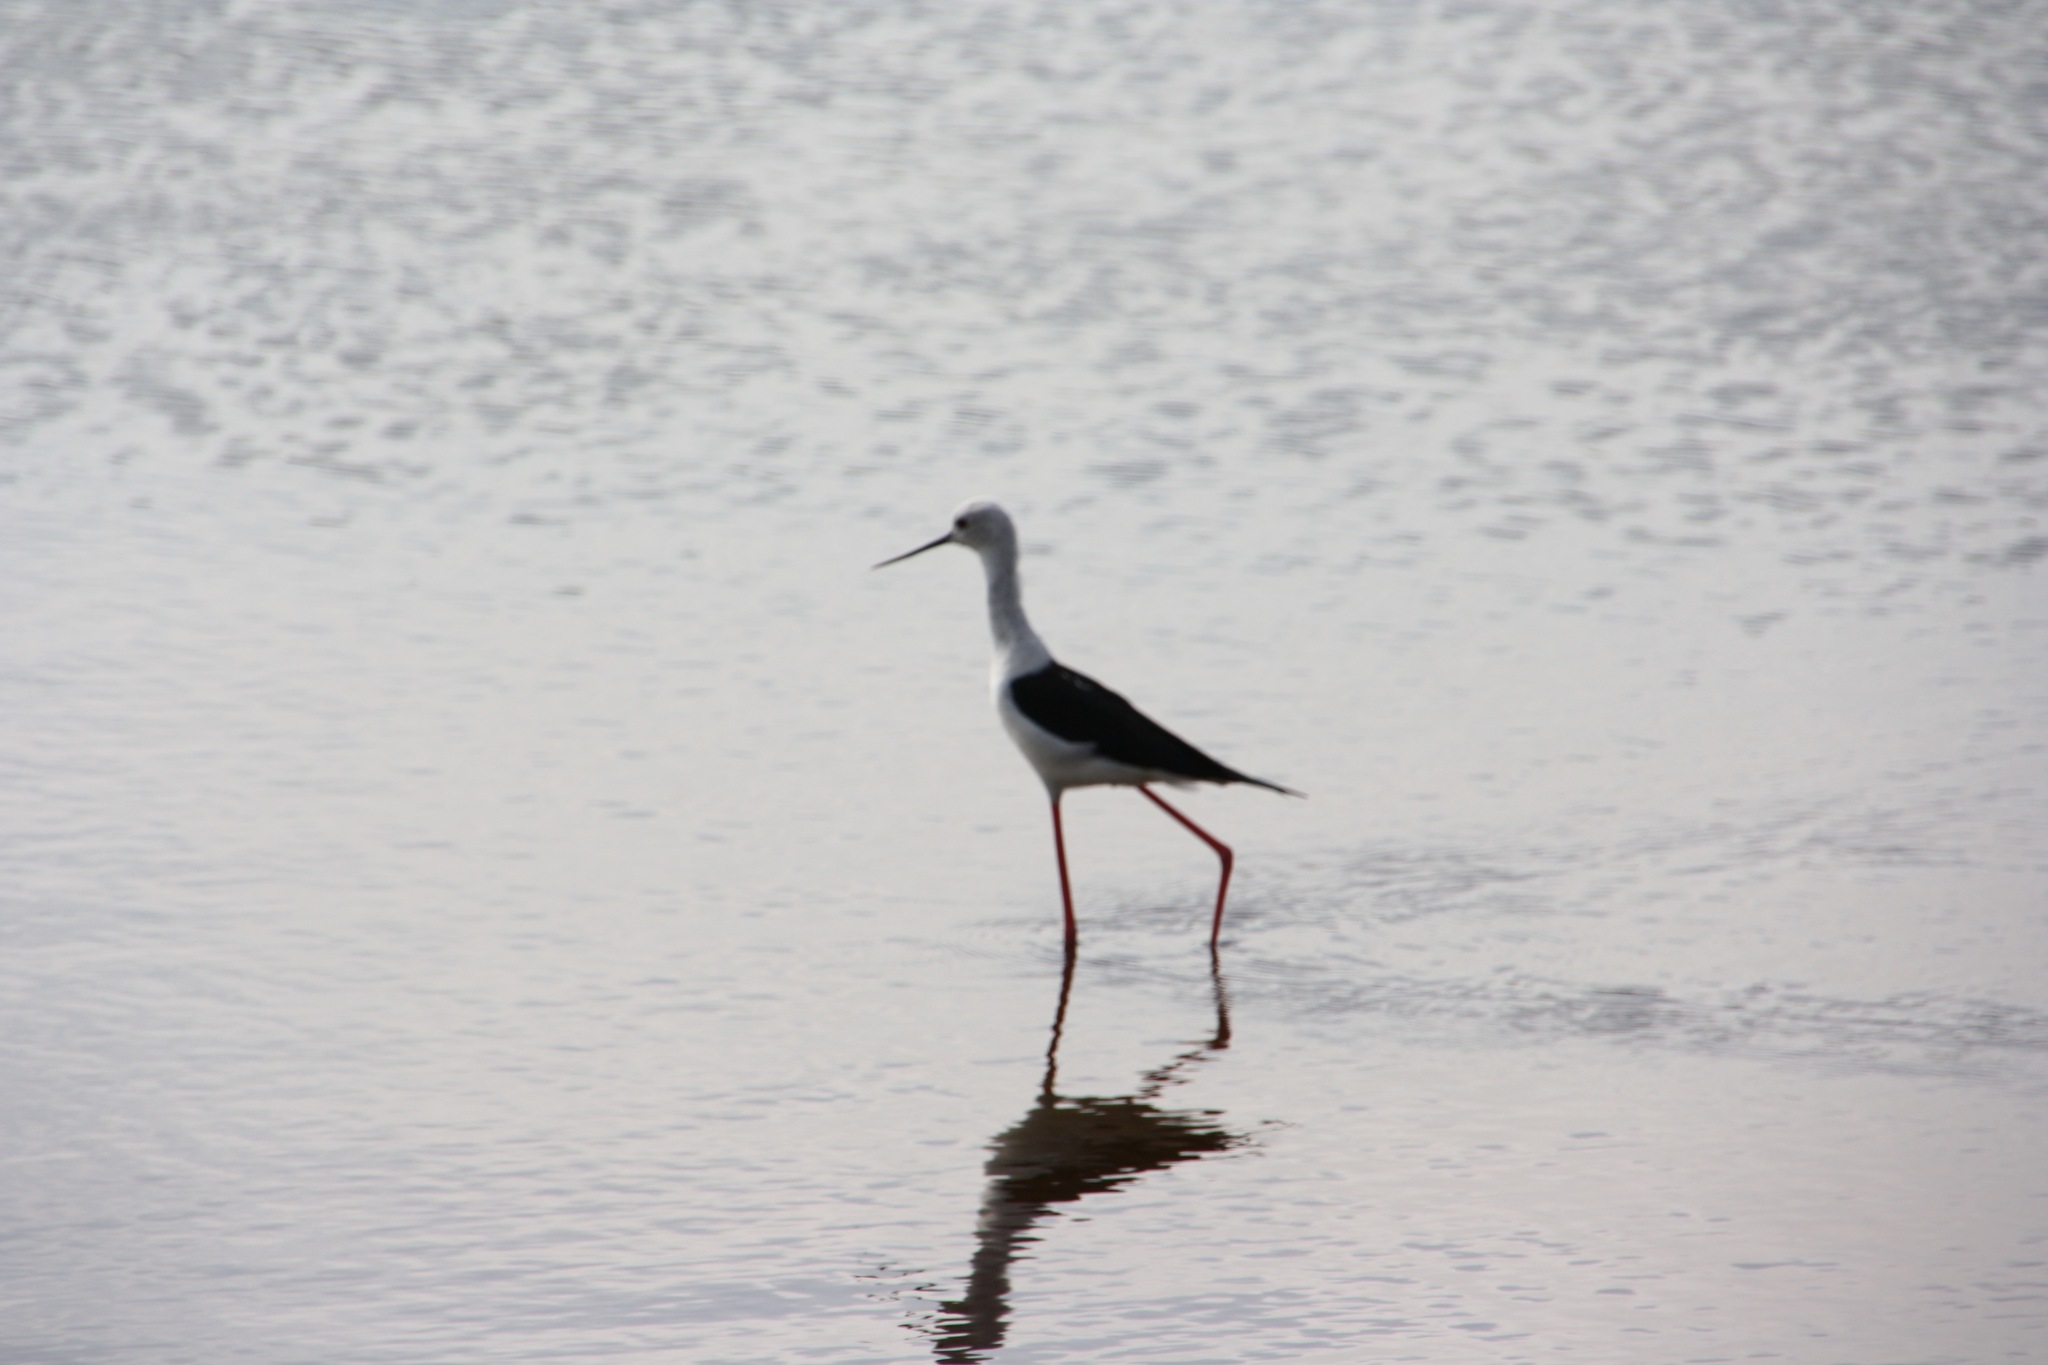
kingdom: Animalia
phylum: Chordata
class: Aves
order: Charadriiformes
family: Recurvirostridae
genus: Himantopus
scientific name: Himantopus himantopus
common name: Black-winged stilt
